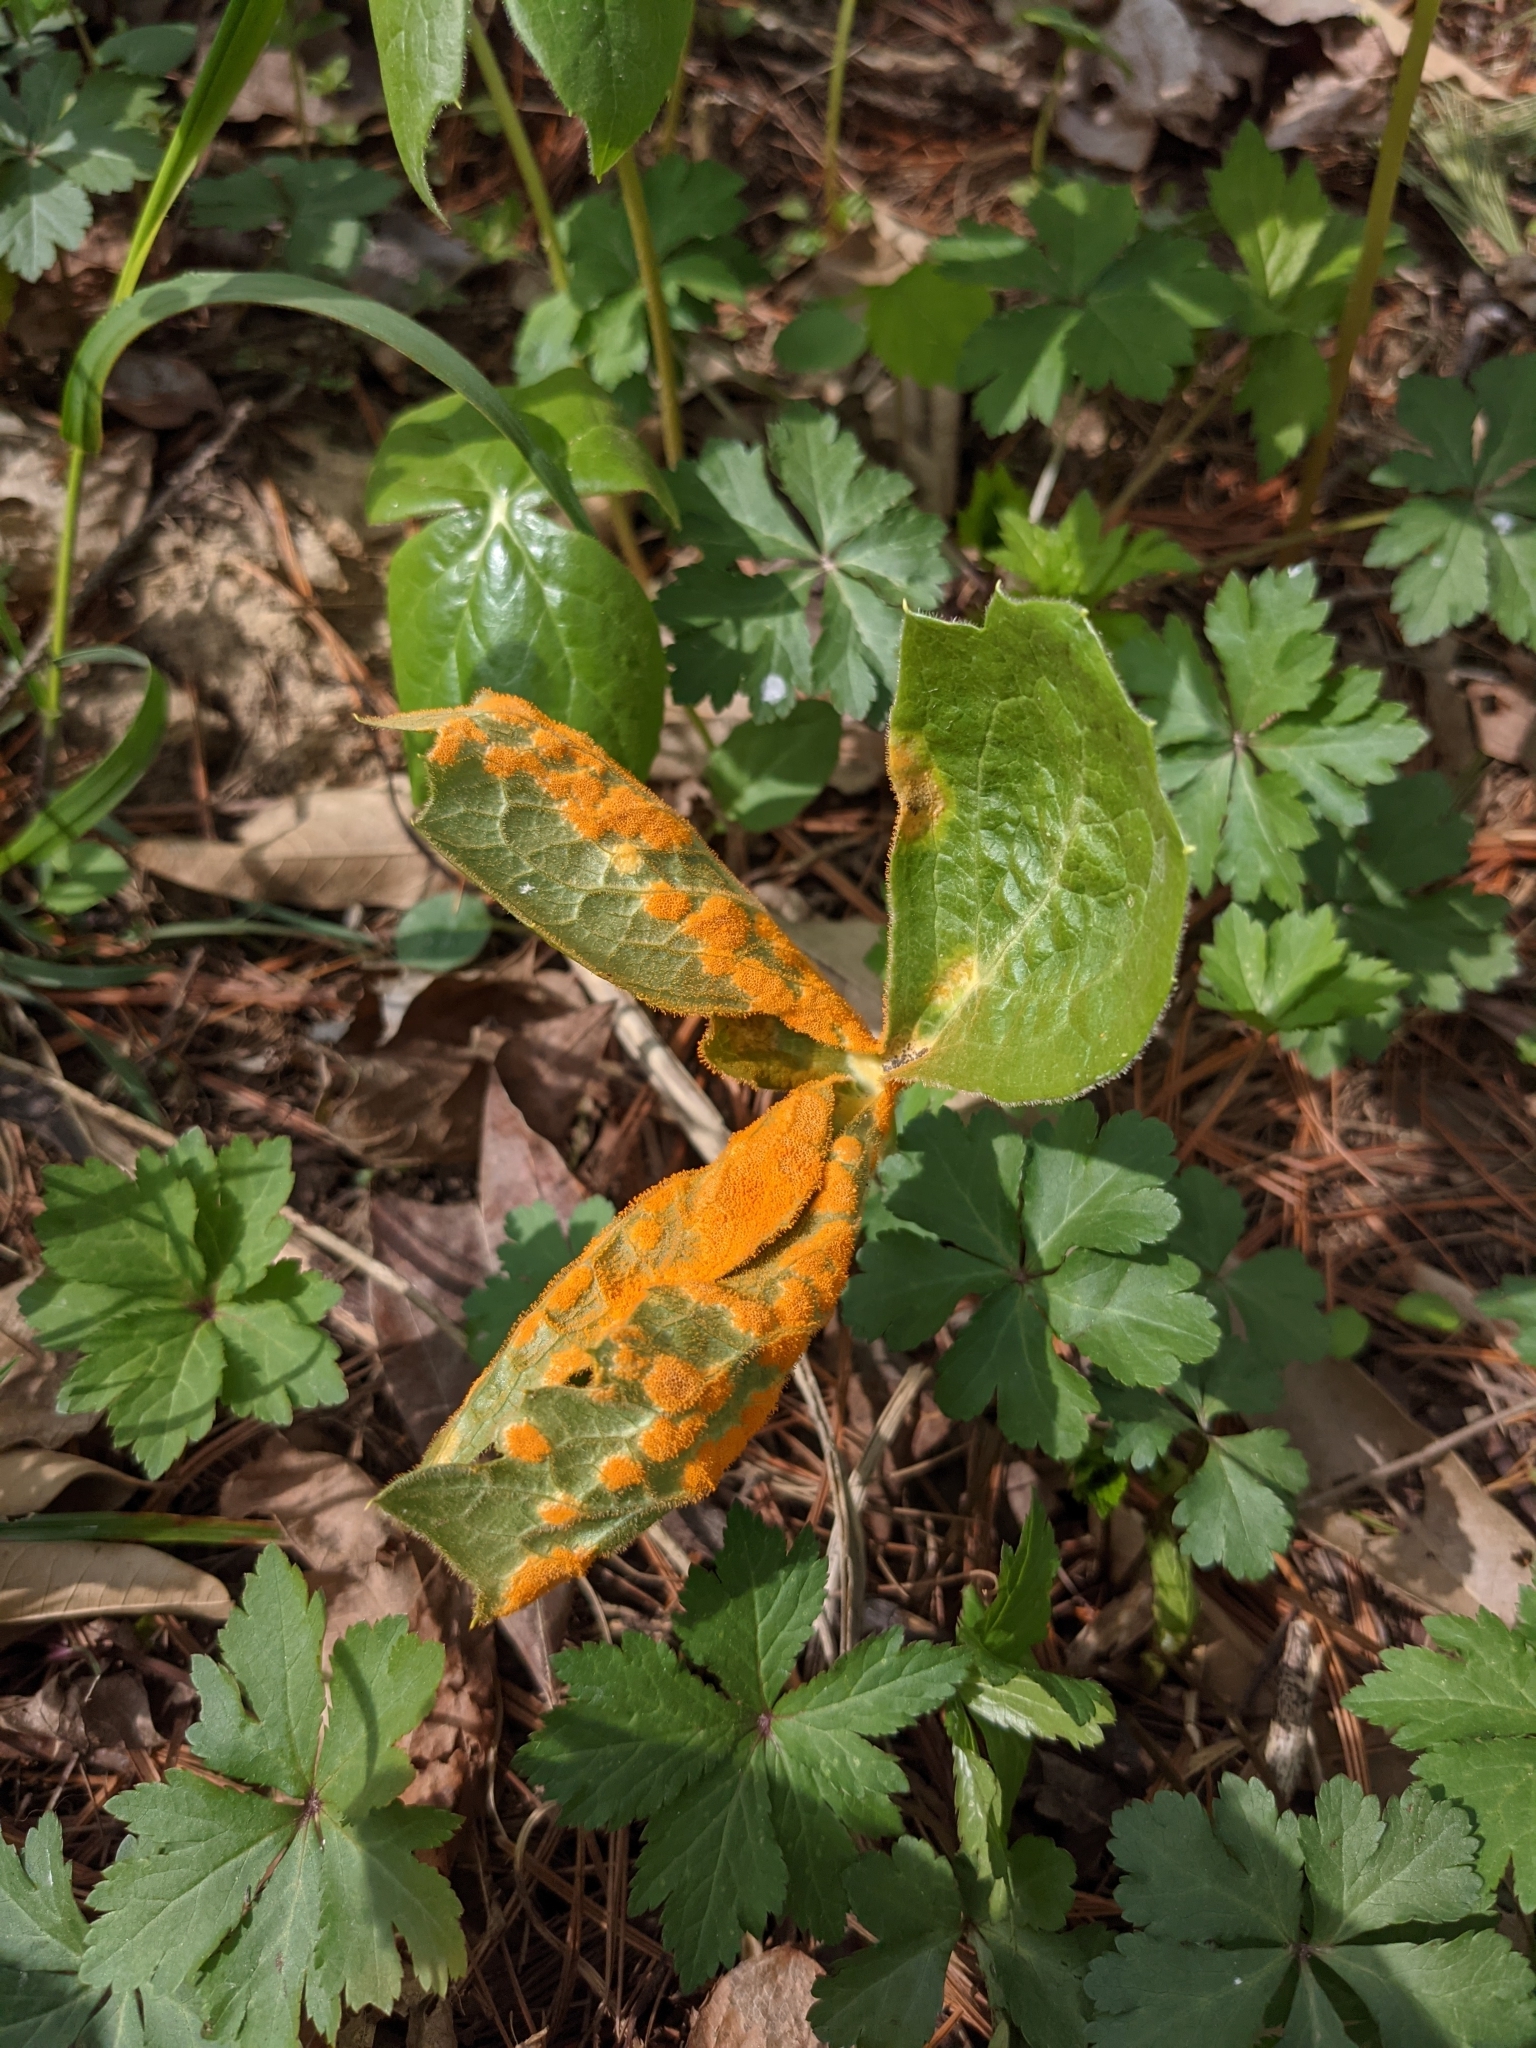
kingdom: Fungi
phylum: Basidiomycota
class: Pucciniomycetes
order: Pucciniales
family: Pucciniaceae
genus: Puccinia
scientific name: Puccinia podophylli
